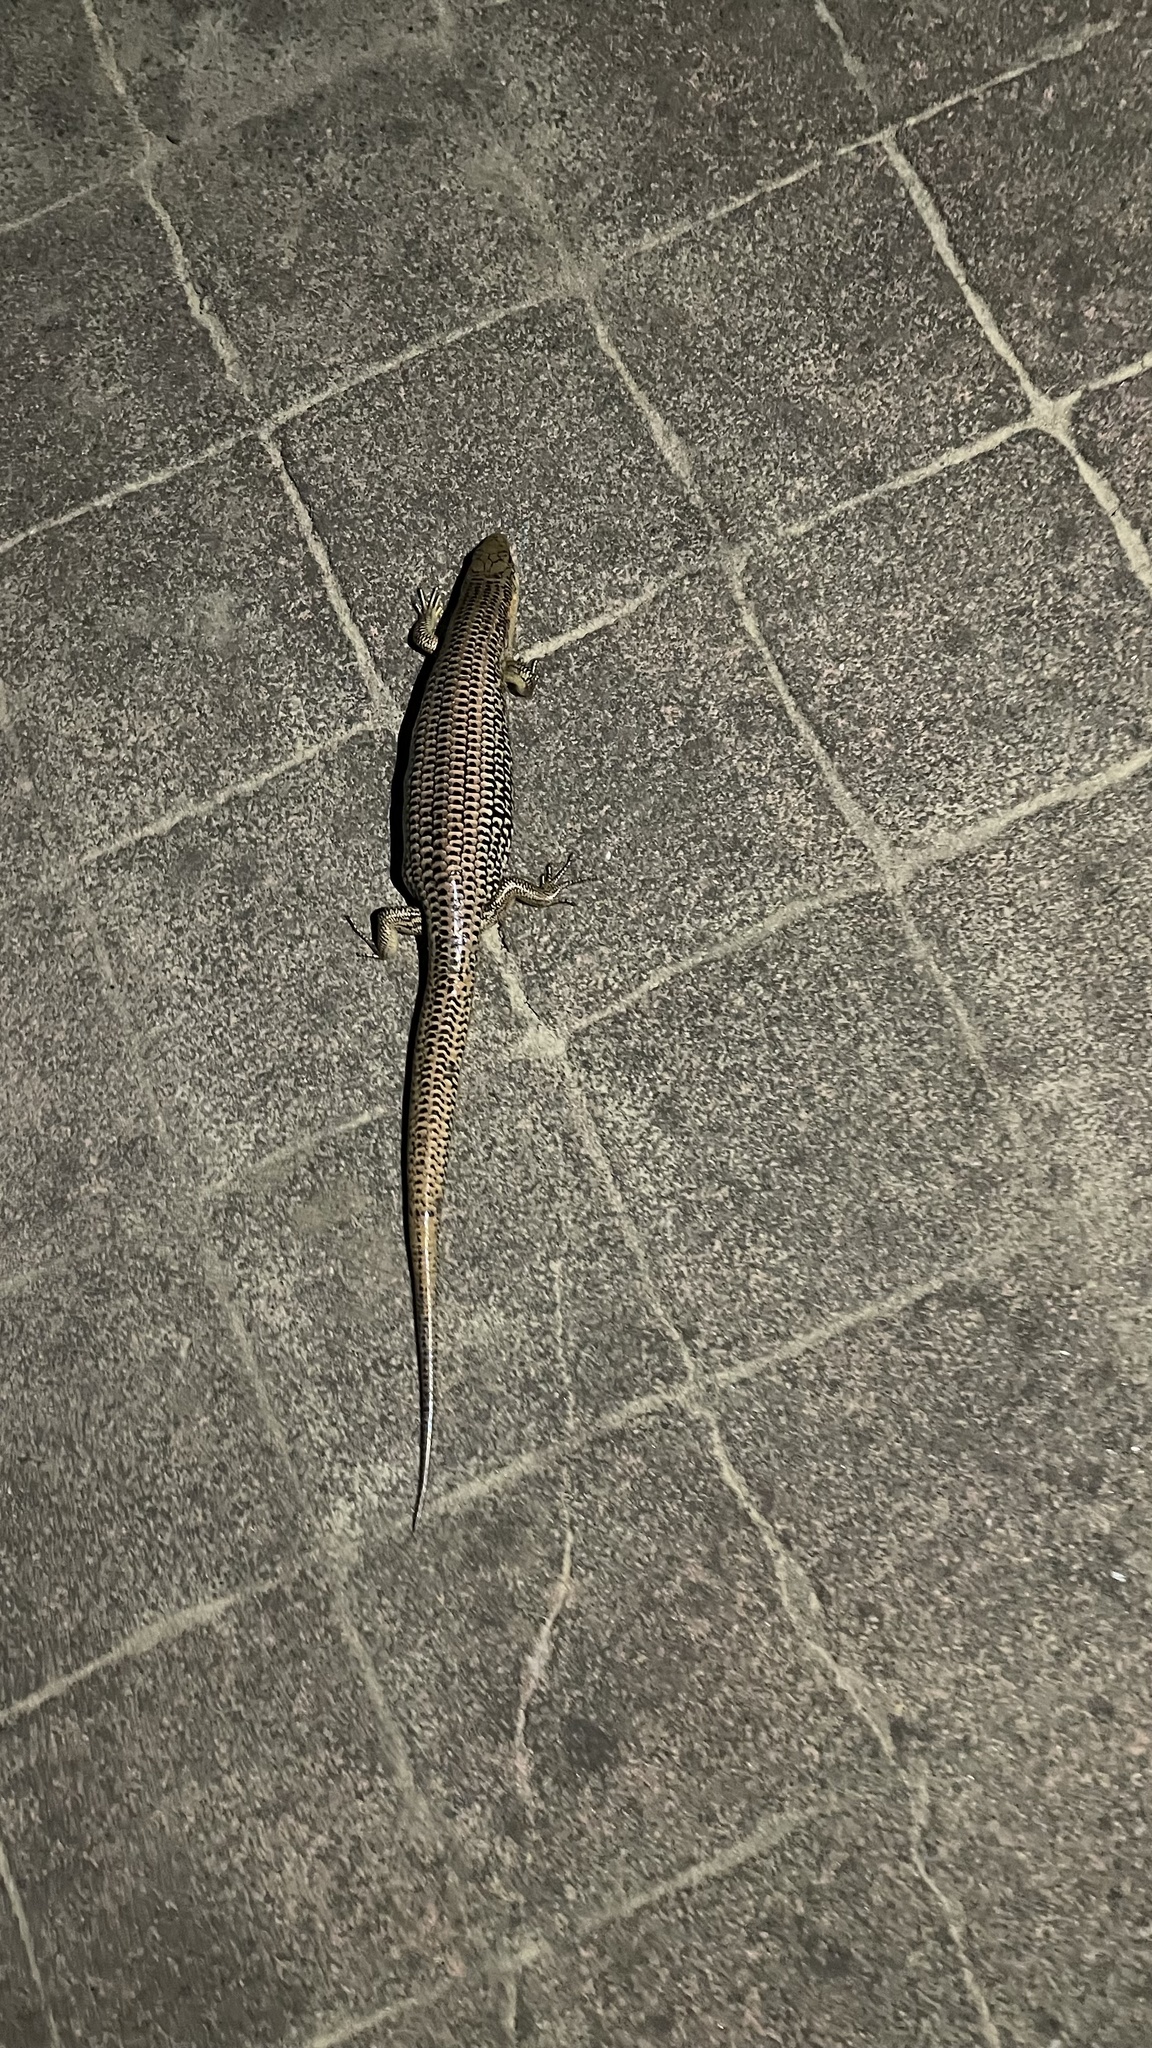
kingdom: Animalia
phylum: Chordata
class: Squamata
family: Scincidae
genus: Plestiodon
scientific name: Plestiodon chinensis
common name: Chinese blue-tailed skink
